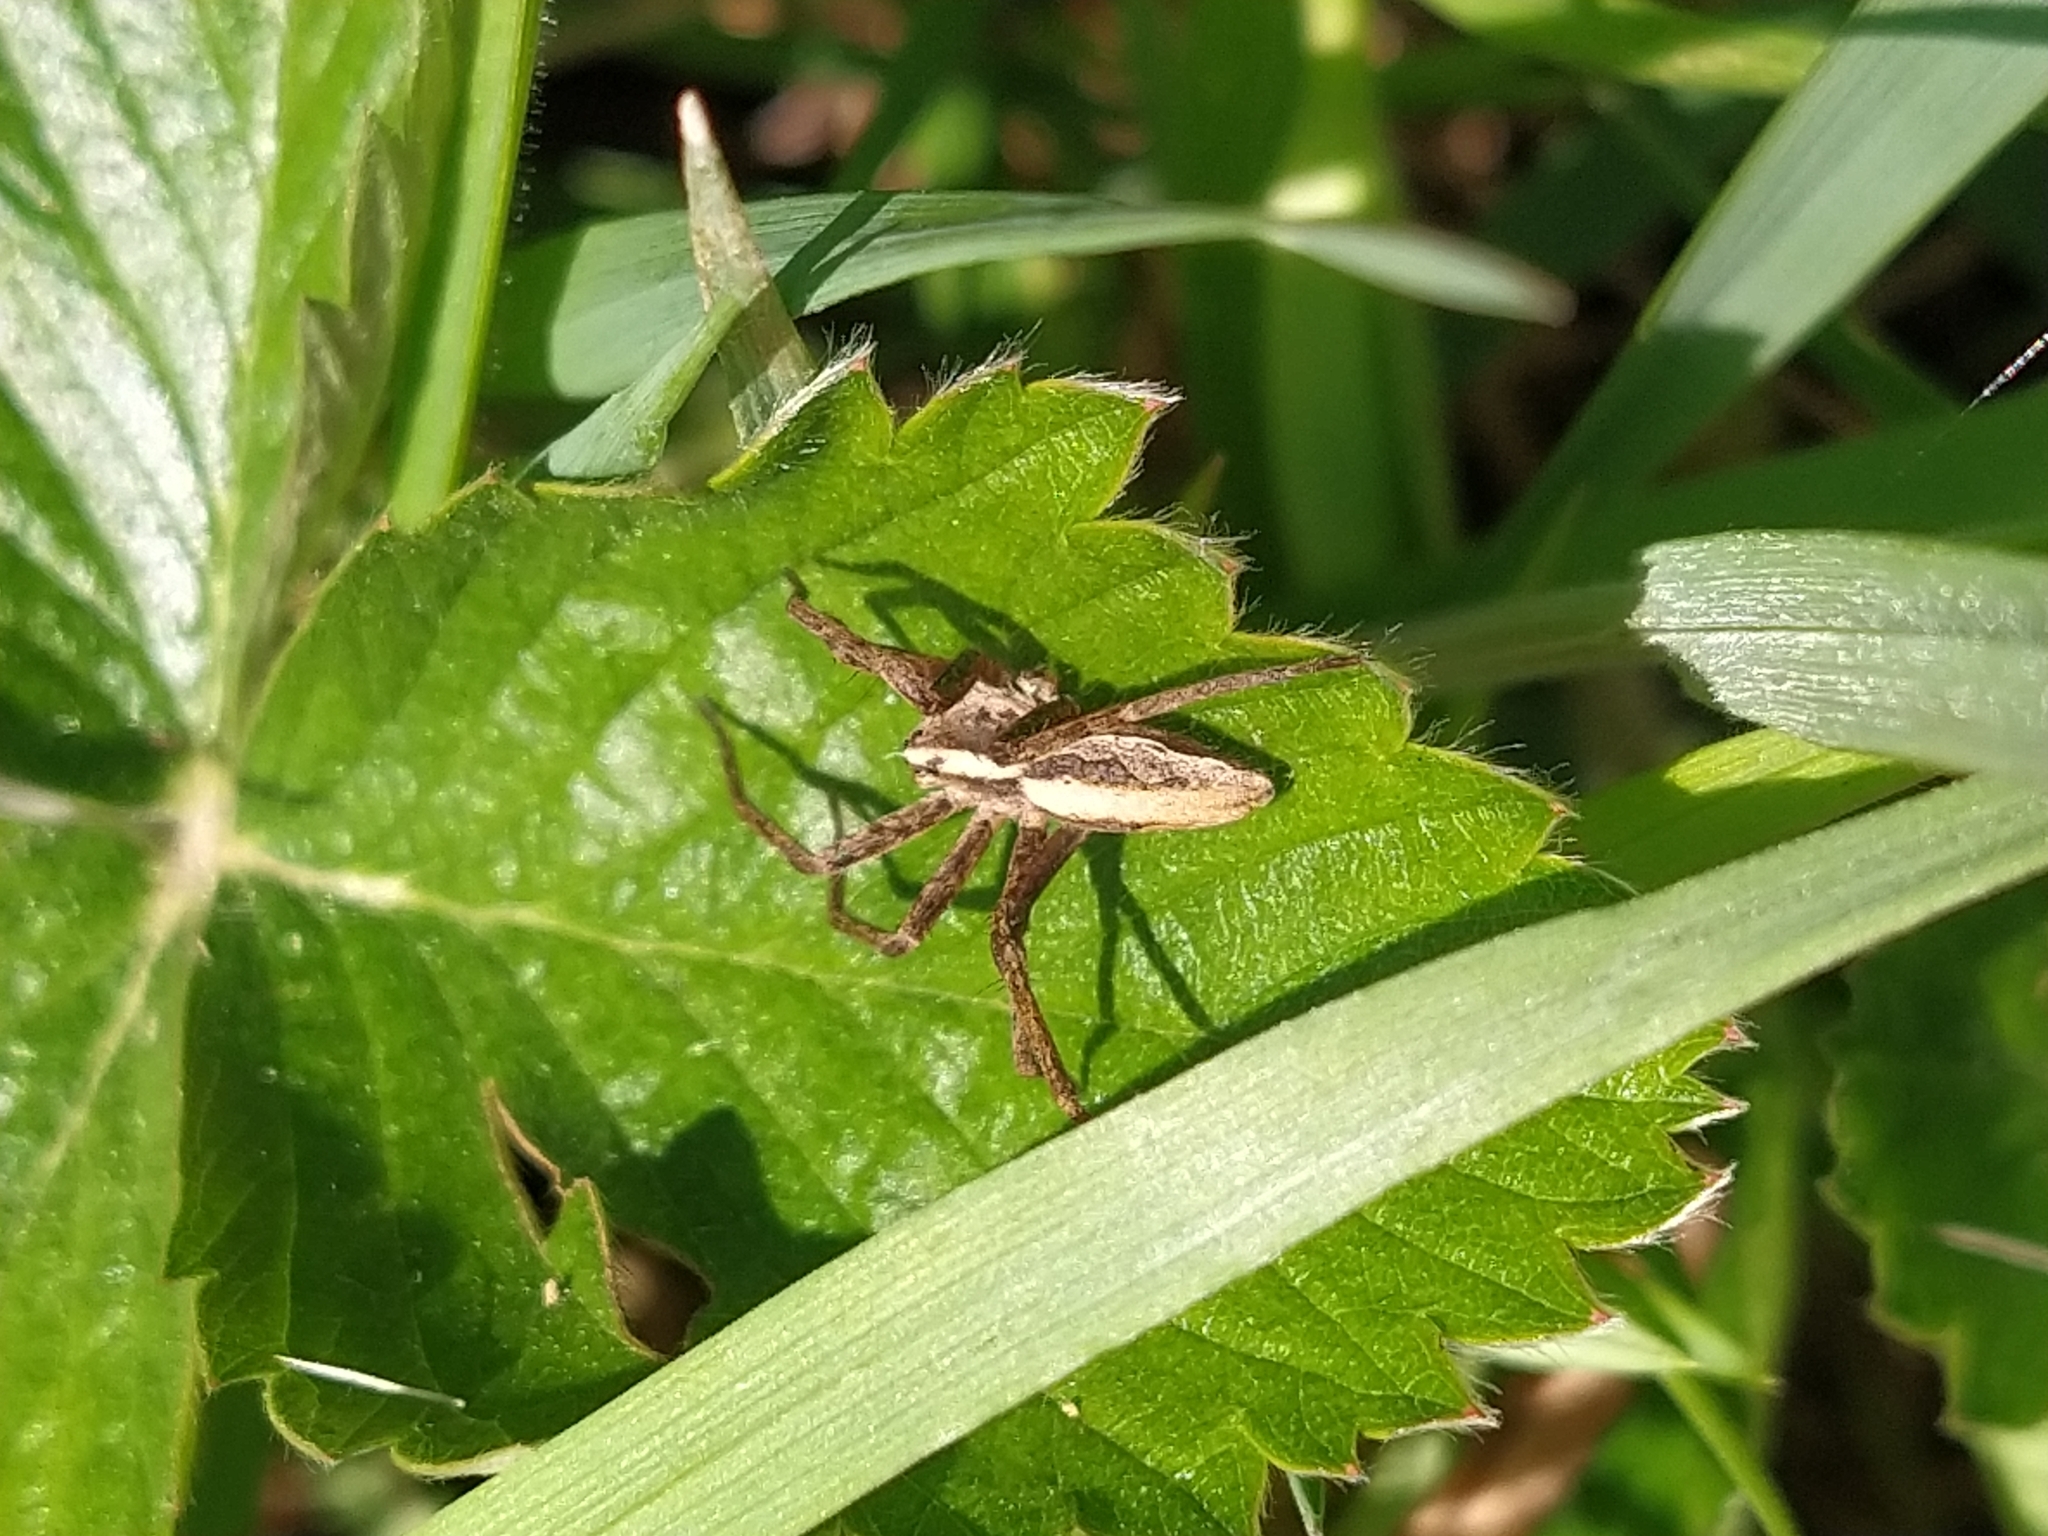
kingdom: Animalia
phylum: Arthropoda
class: Arachnida
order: Araneae
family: Pisauridae
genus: Pisaura
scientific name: Pisaura mirabilis
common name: Tent spider
